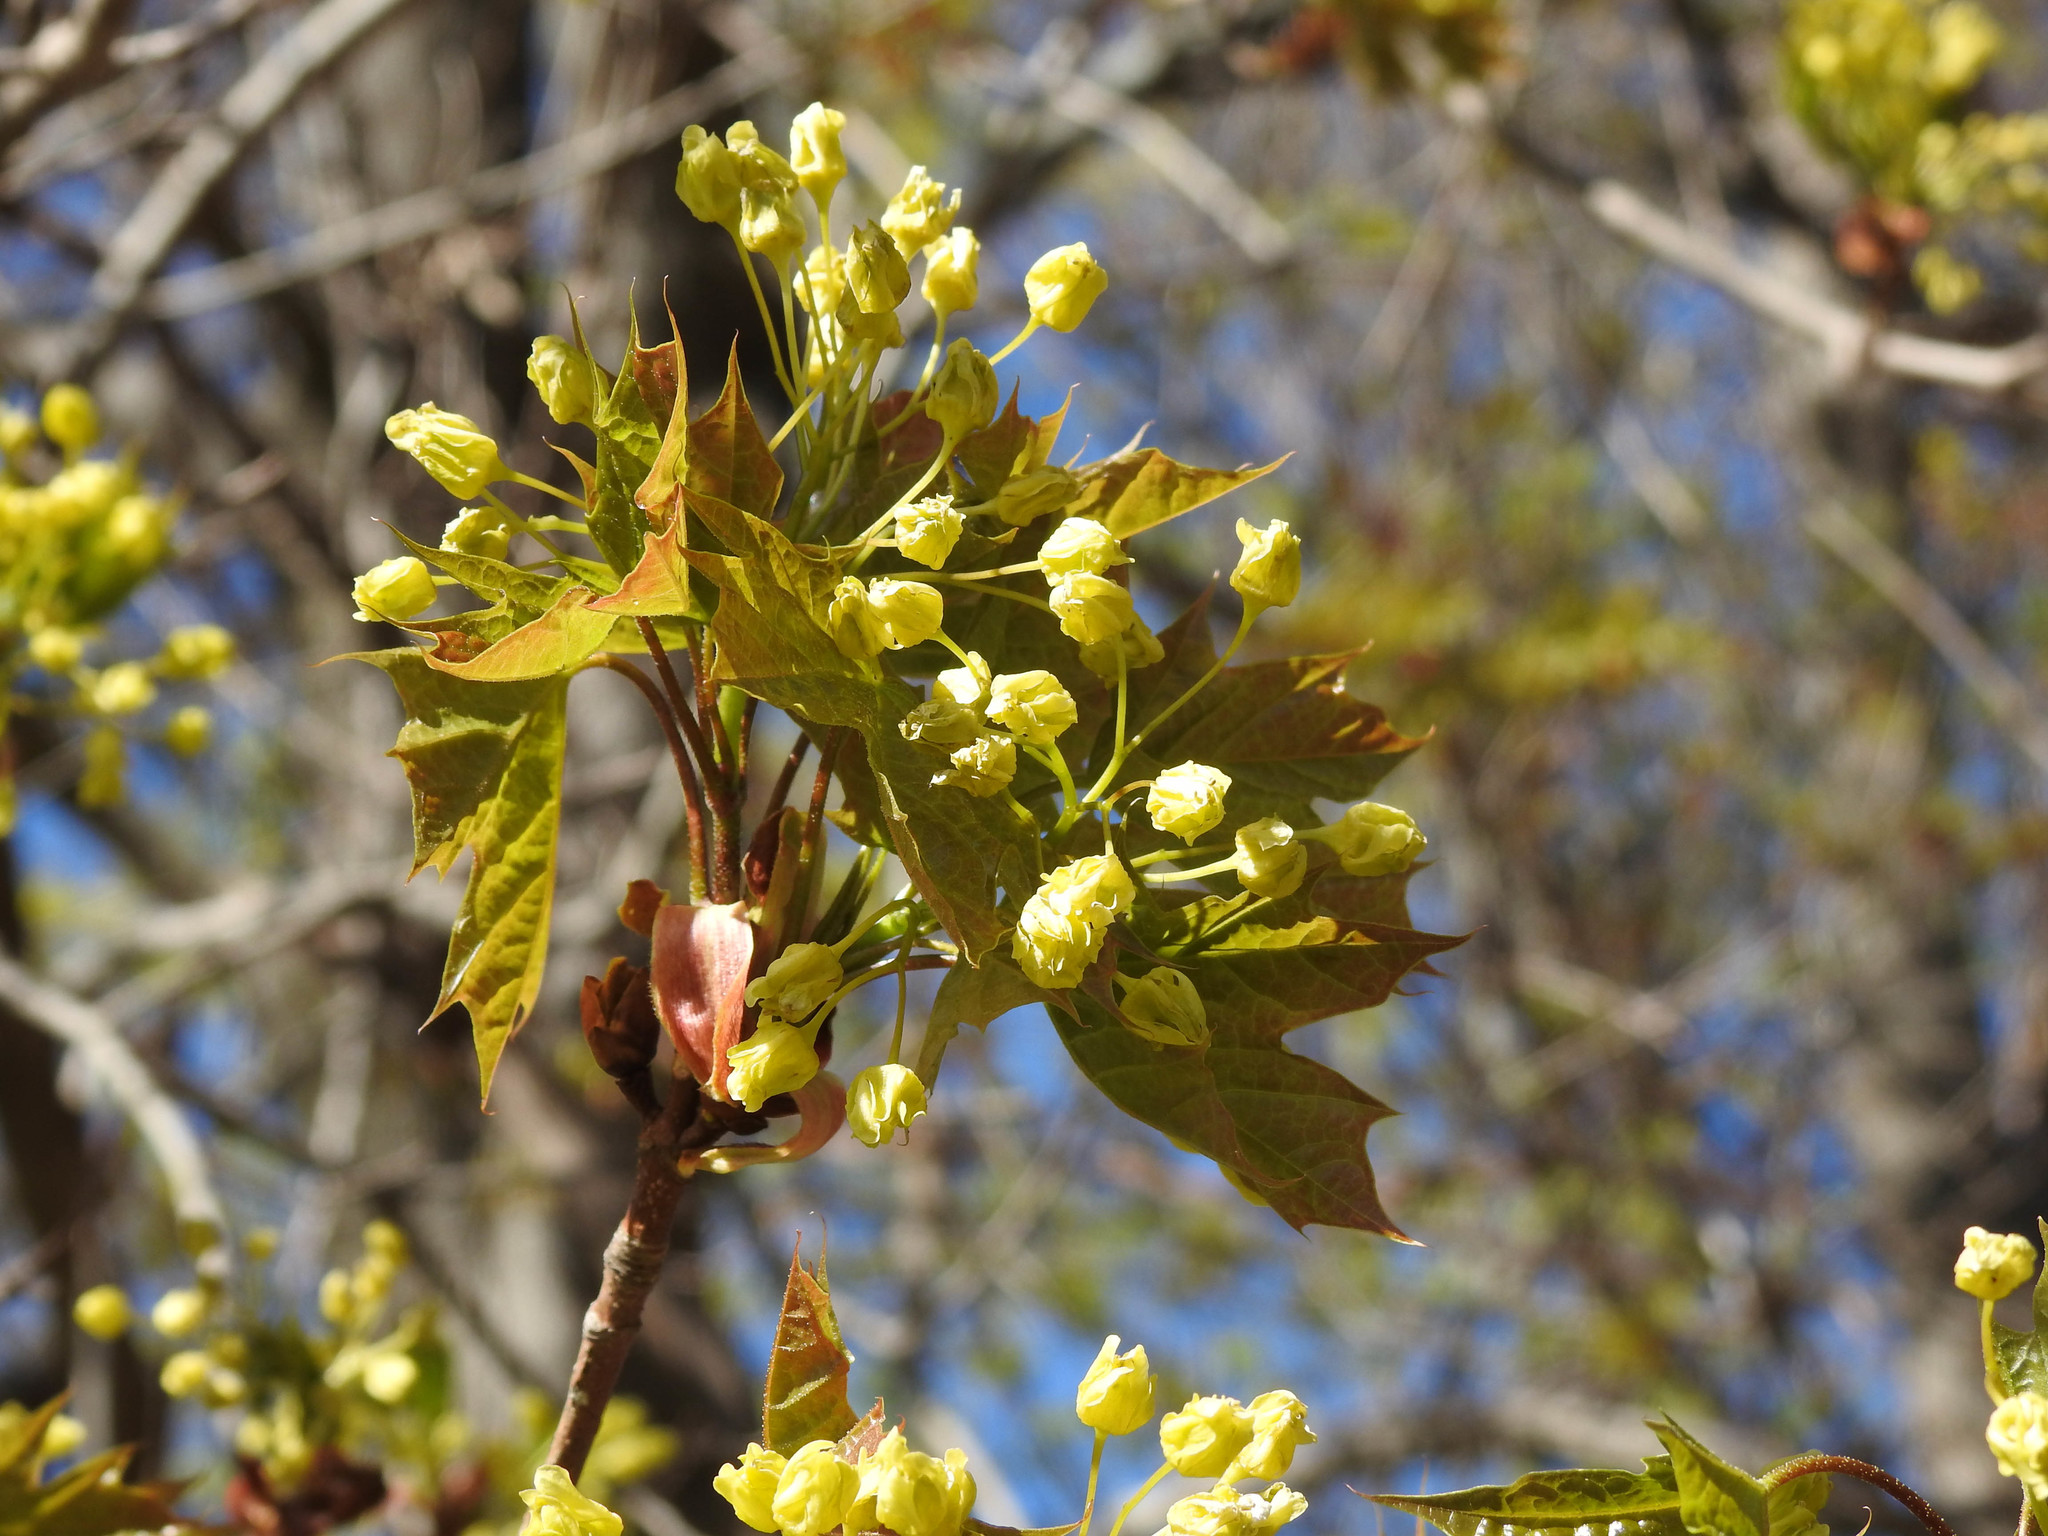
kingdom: Plantae
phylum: Tracheophyta
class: Magnoliopsida
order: Sapindales
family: Sapindaceae
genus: Acer
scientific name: Acer platanoides
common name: Norway maple
